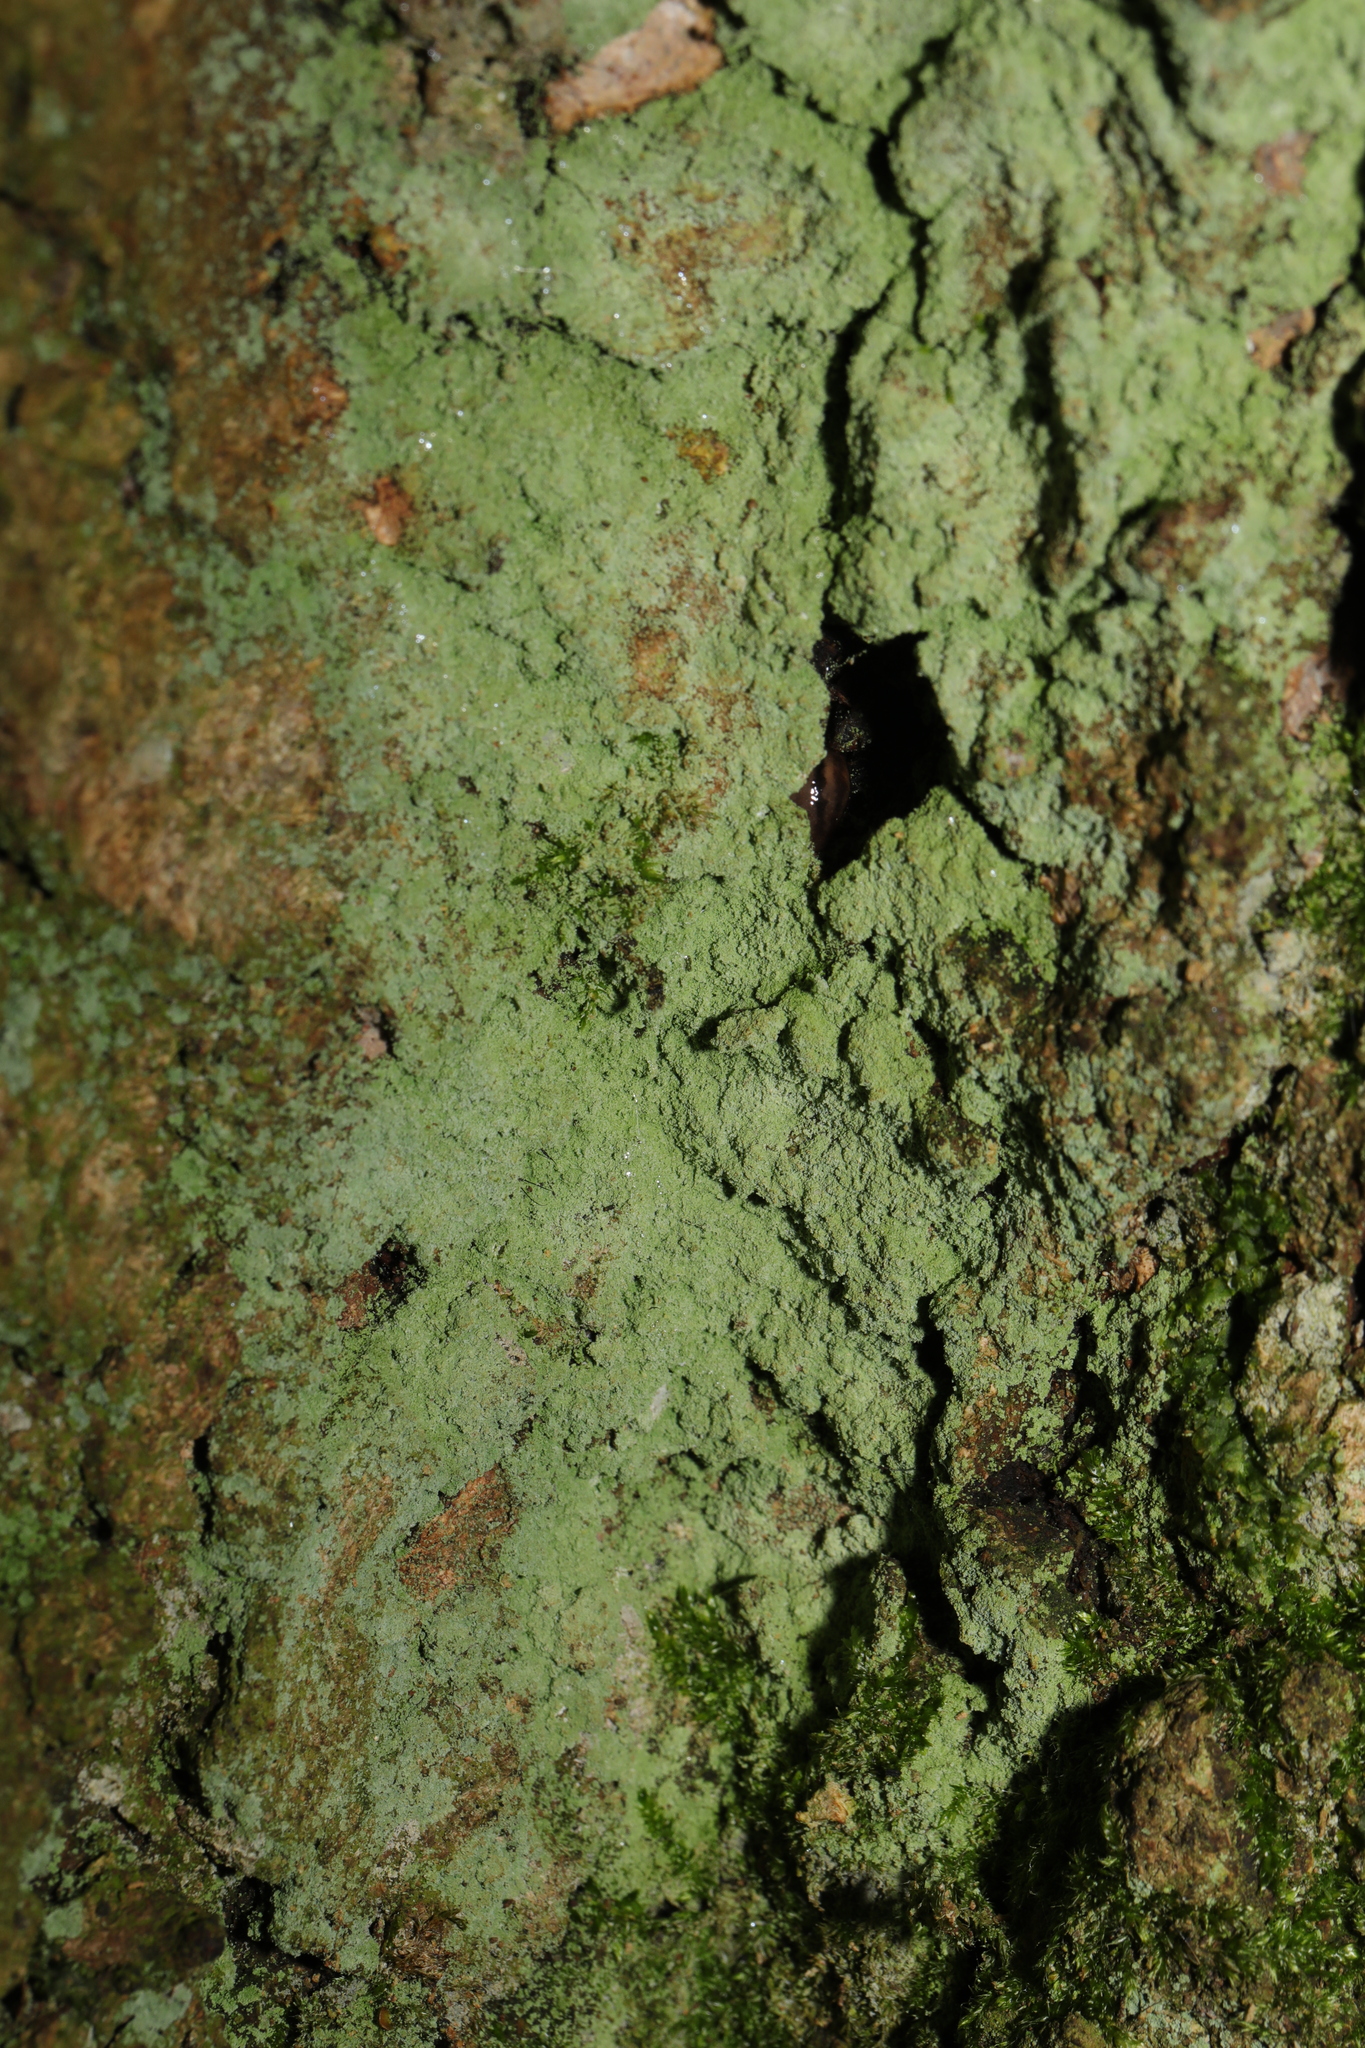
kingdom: Fungi
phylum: Ascomycota
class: Lecanoromycetes
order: Lecanorales
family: Stereocaulaceae
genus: Lepraria
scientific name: Lepraria
